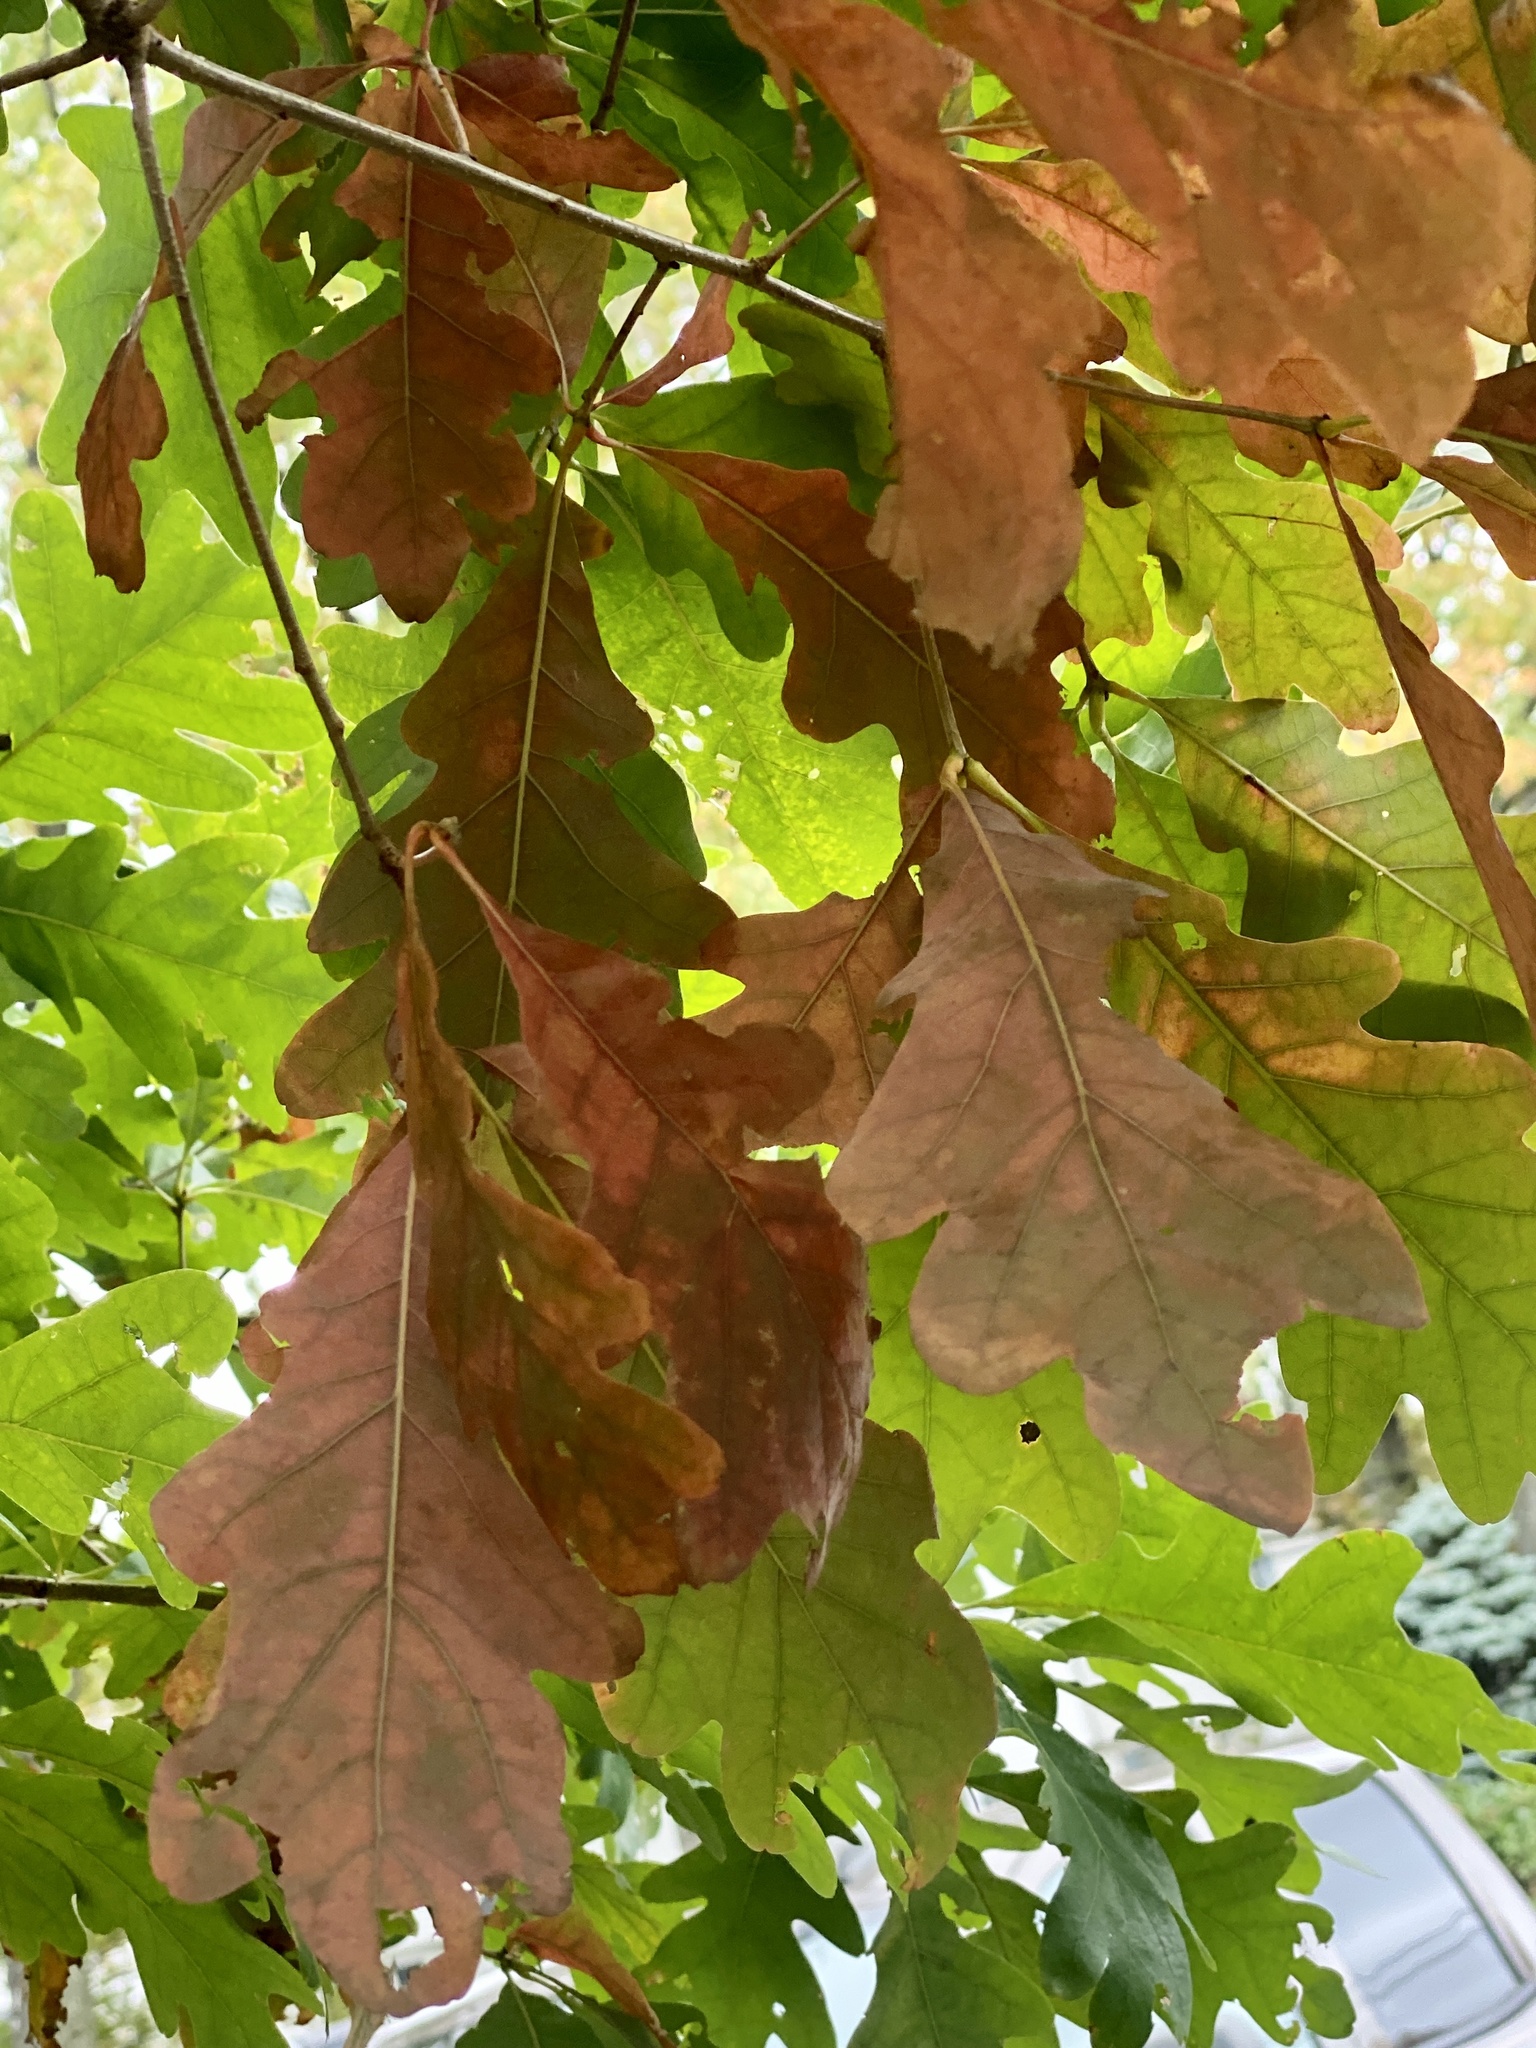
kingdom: Plantae
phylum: Tracheophyta
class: Magnoliopsida
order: Fagales
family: Fagaceae
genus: Quercus
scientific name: Quercus alba
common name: White oak
